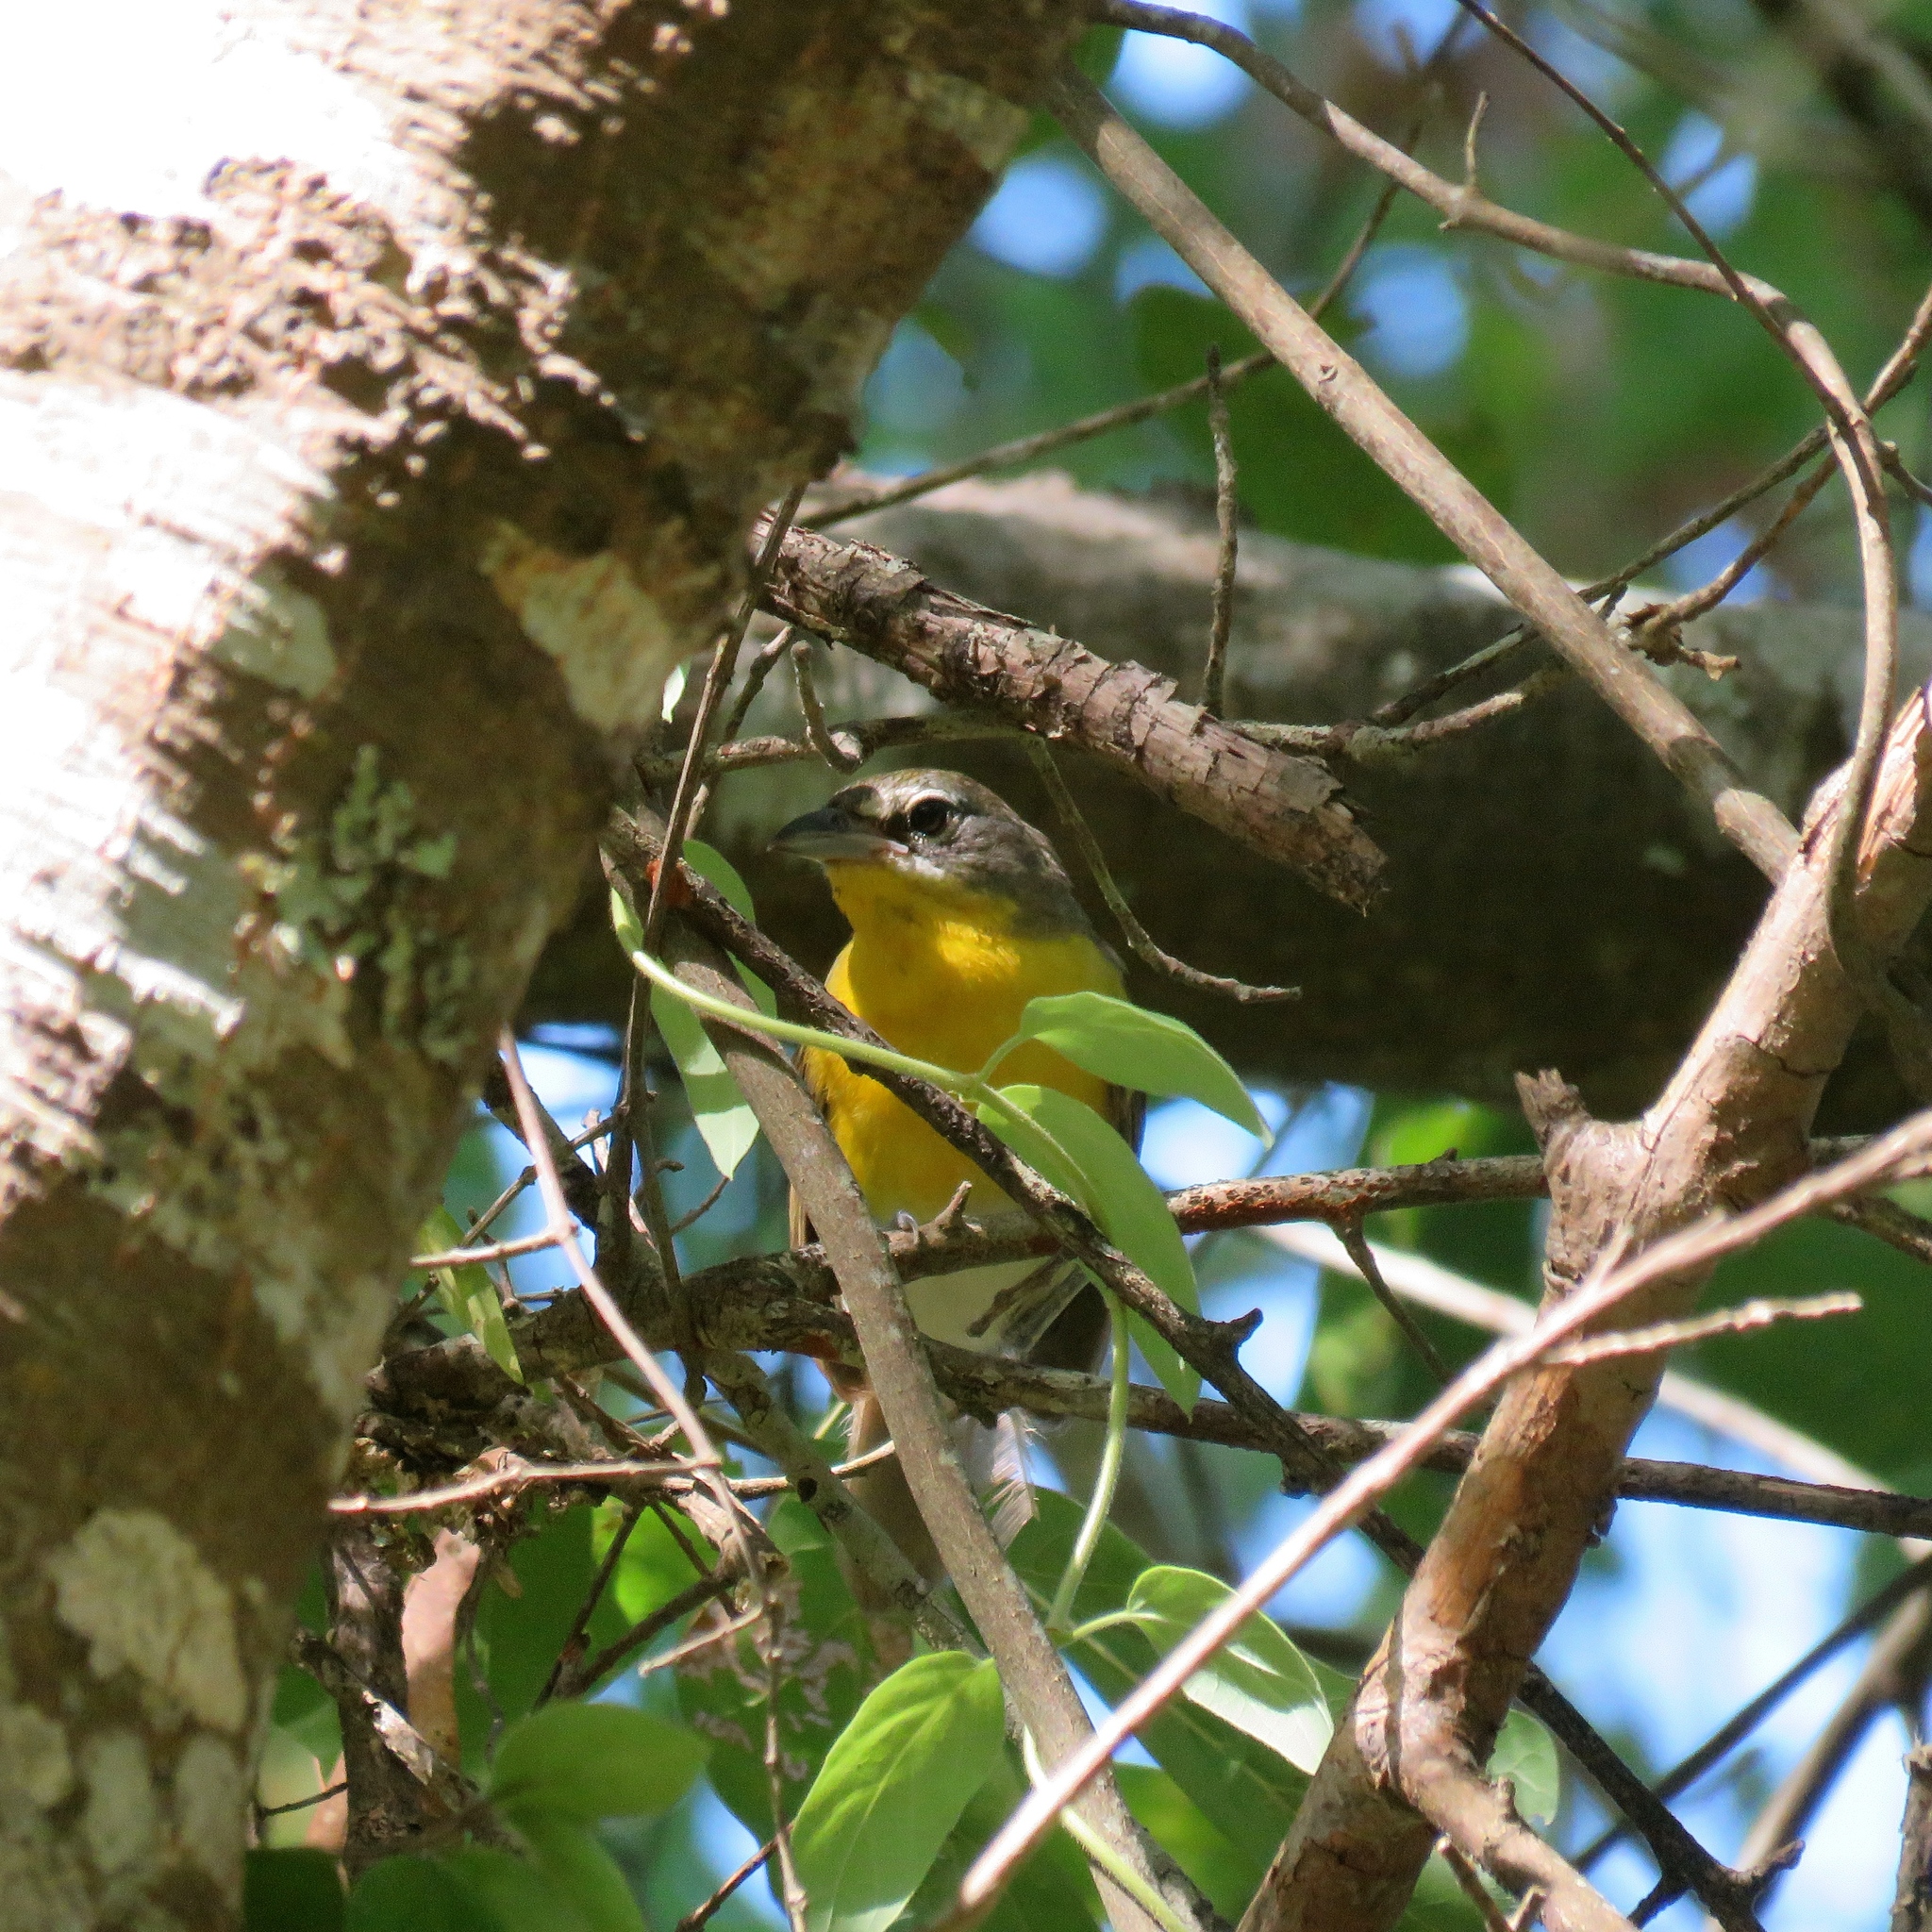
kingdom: Animalia
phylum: Chordata
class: Aves
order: Passeriformes
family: Parulidae
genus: Icteria
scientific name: Icteria virens
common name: Yellow-breasted chat
